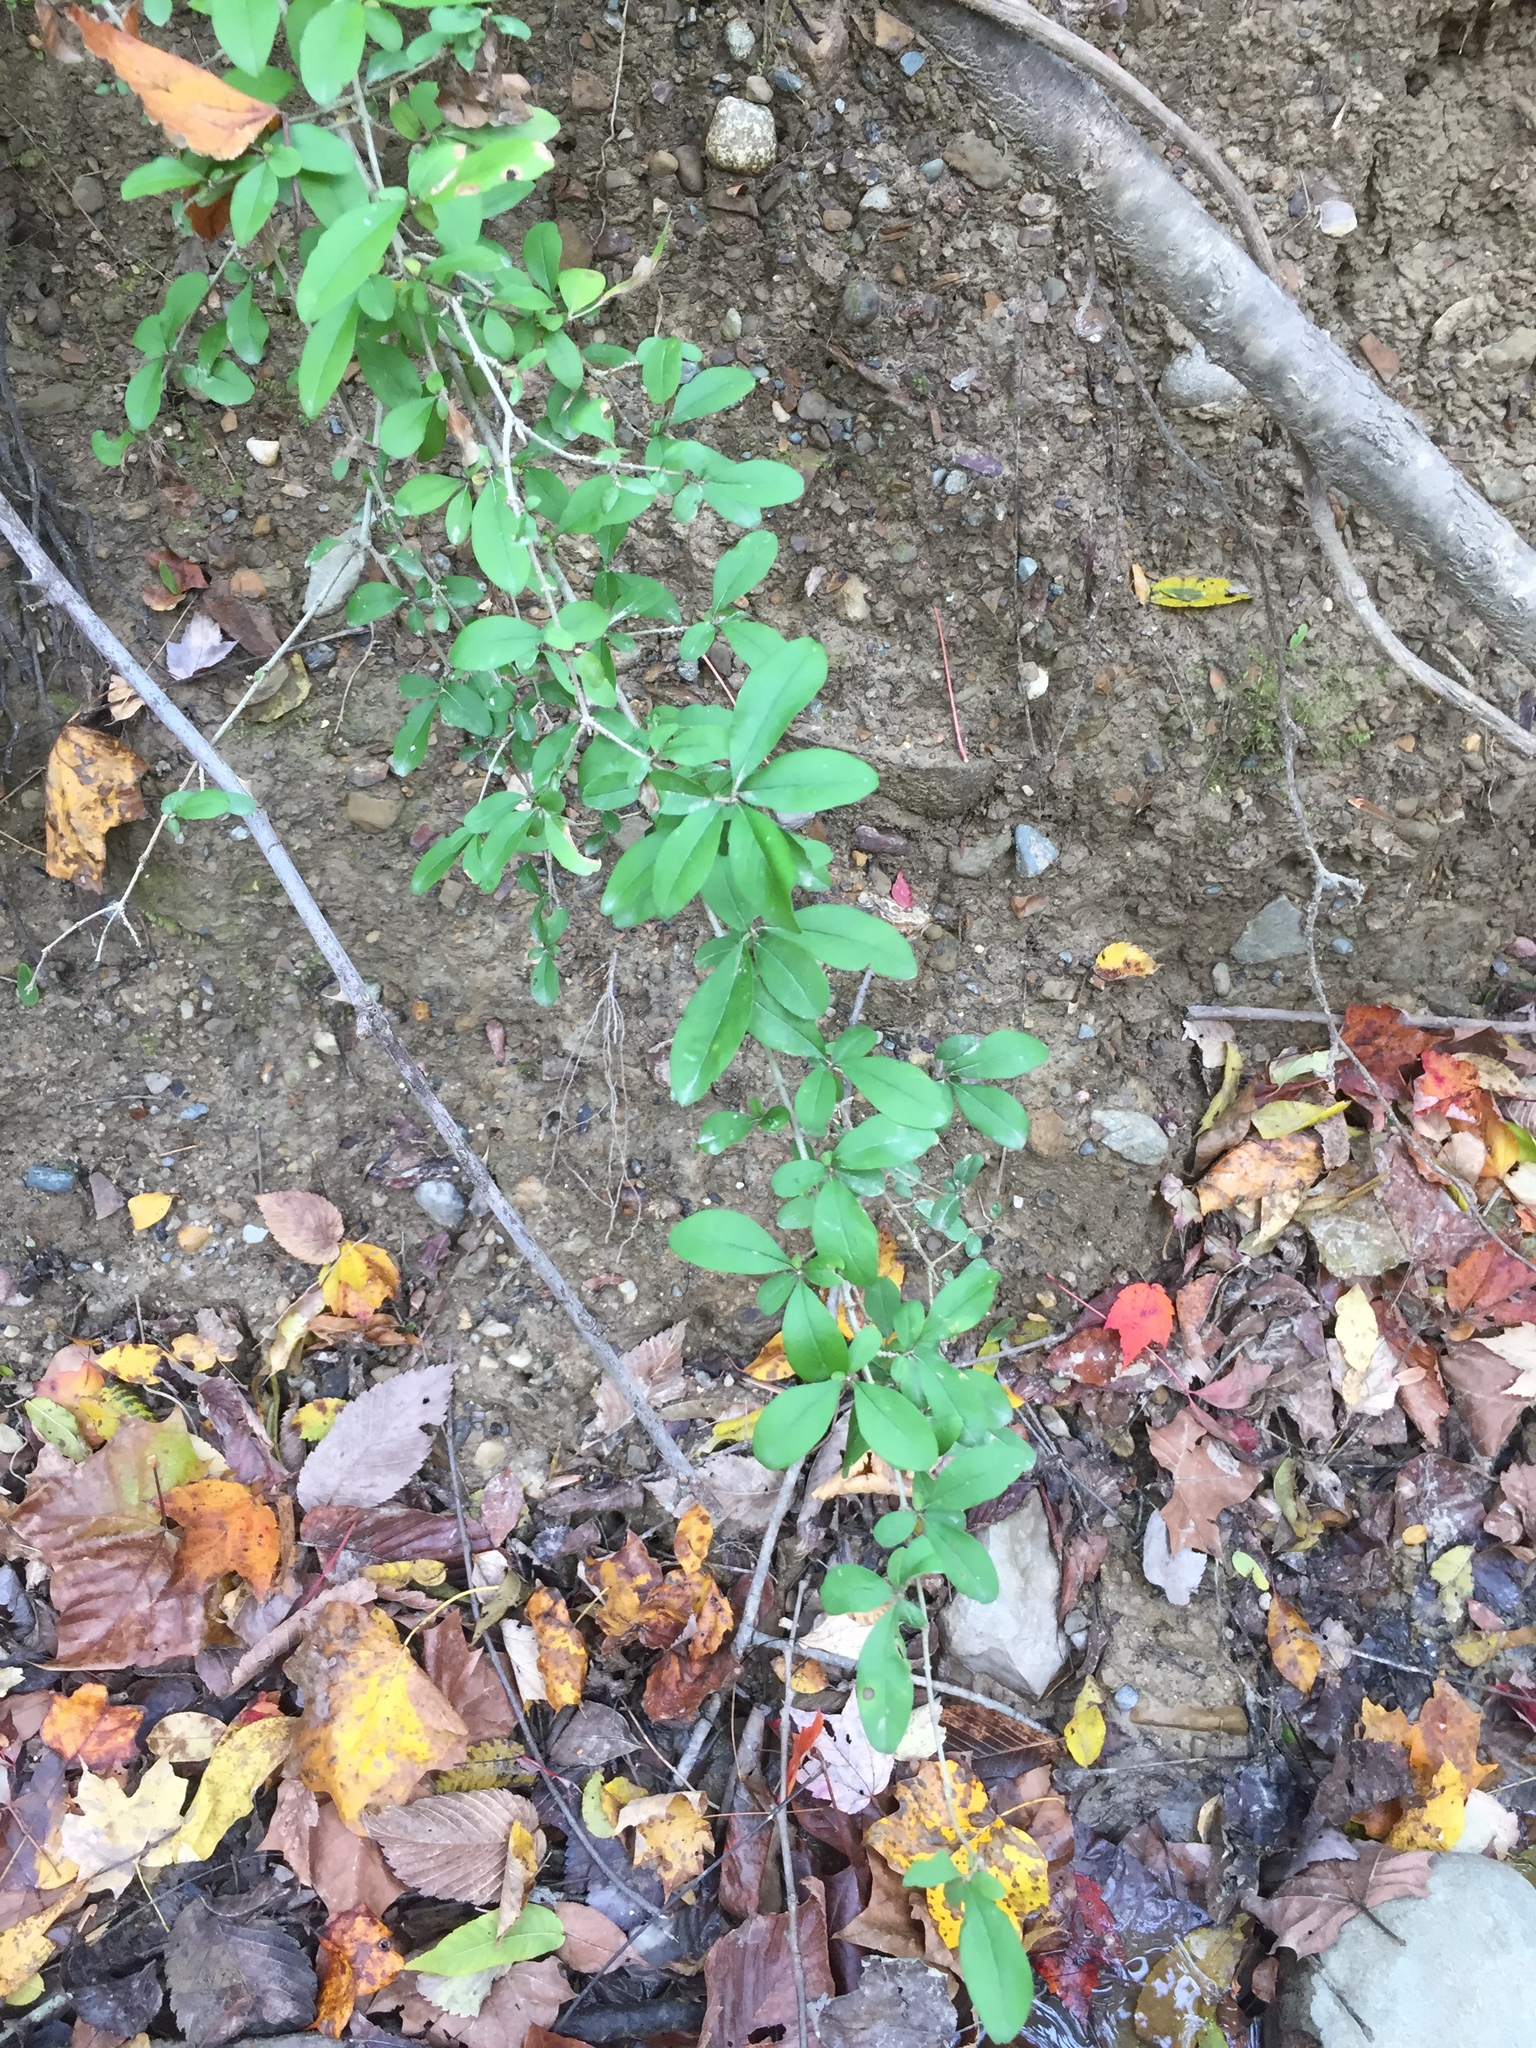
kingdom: Plantae
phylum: Tracheophyta
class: Magnoliopsida
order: Lamiales
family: Oleaceae
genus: Ligustrum
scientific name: Ligustrum obtusifolium
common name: Border privet
